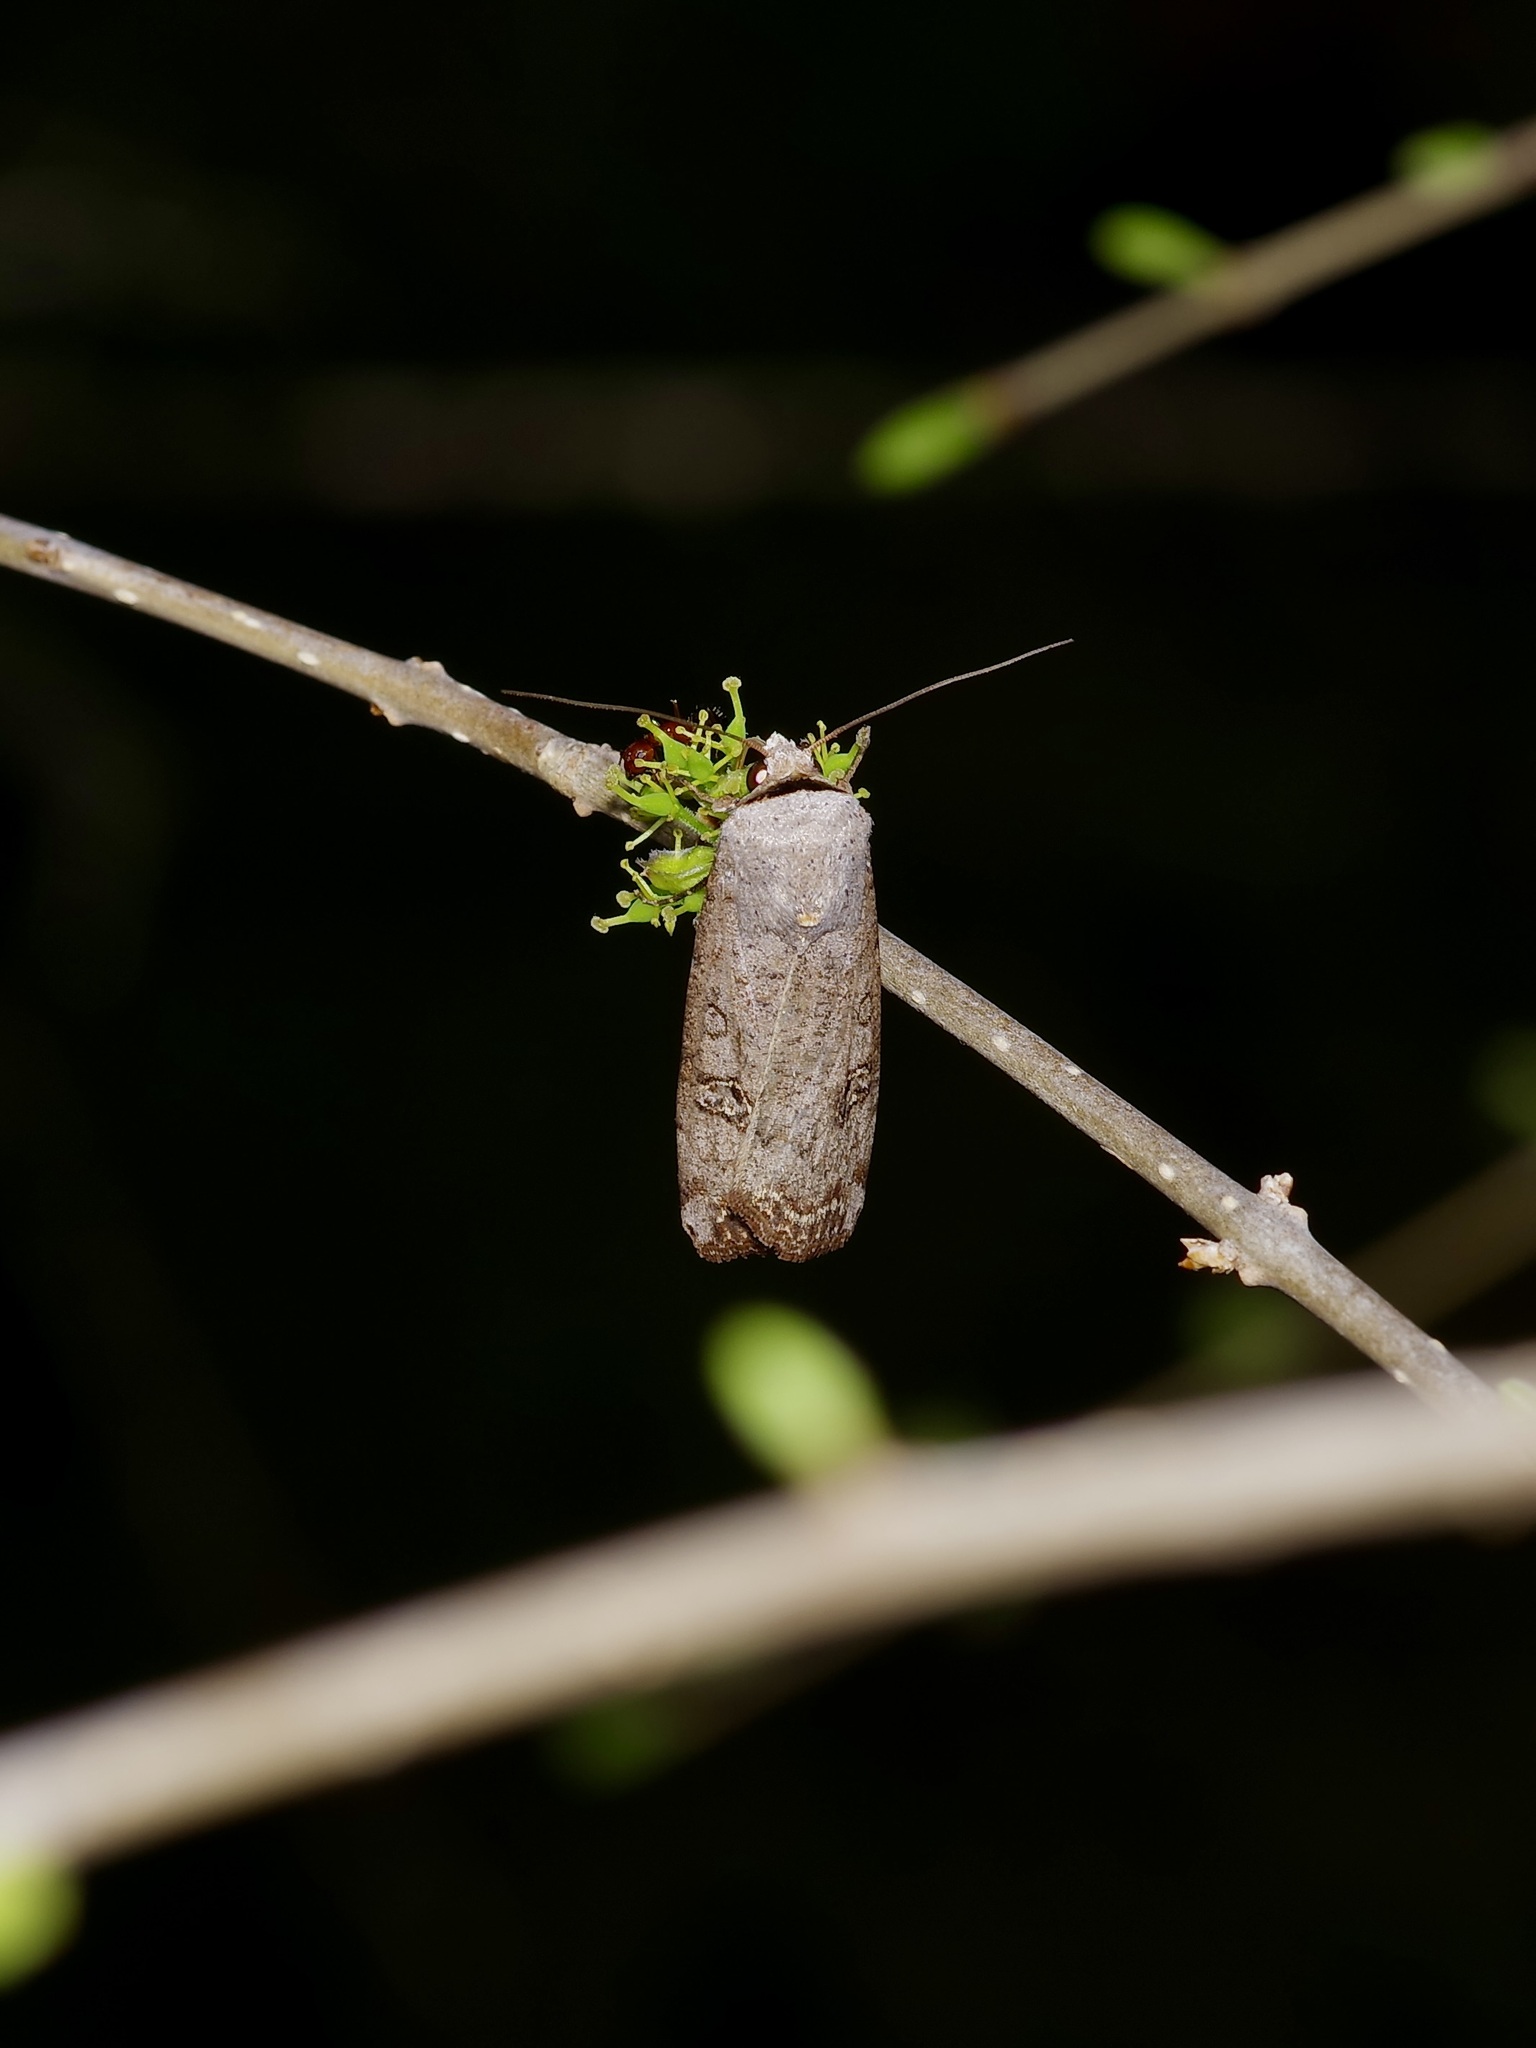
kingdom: Animalia
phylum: Arthropoda
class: Insecta
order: Lepidoptera
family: Noctuidae
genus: Anicla
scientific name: Anicla infecta
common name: Green cutworm
